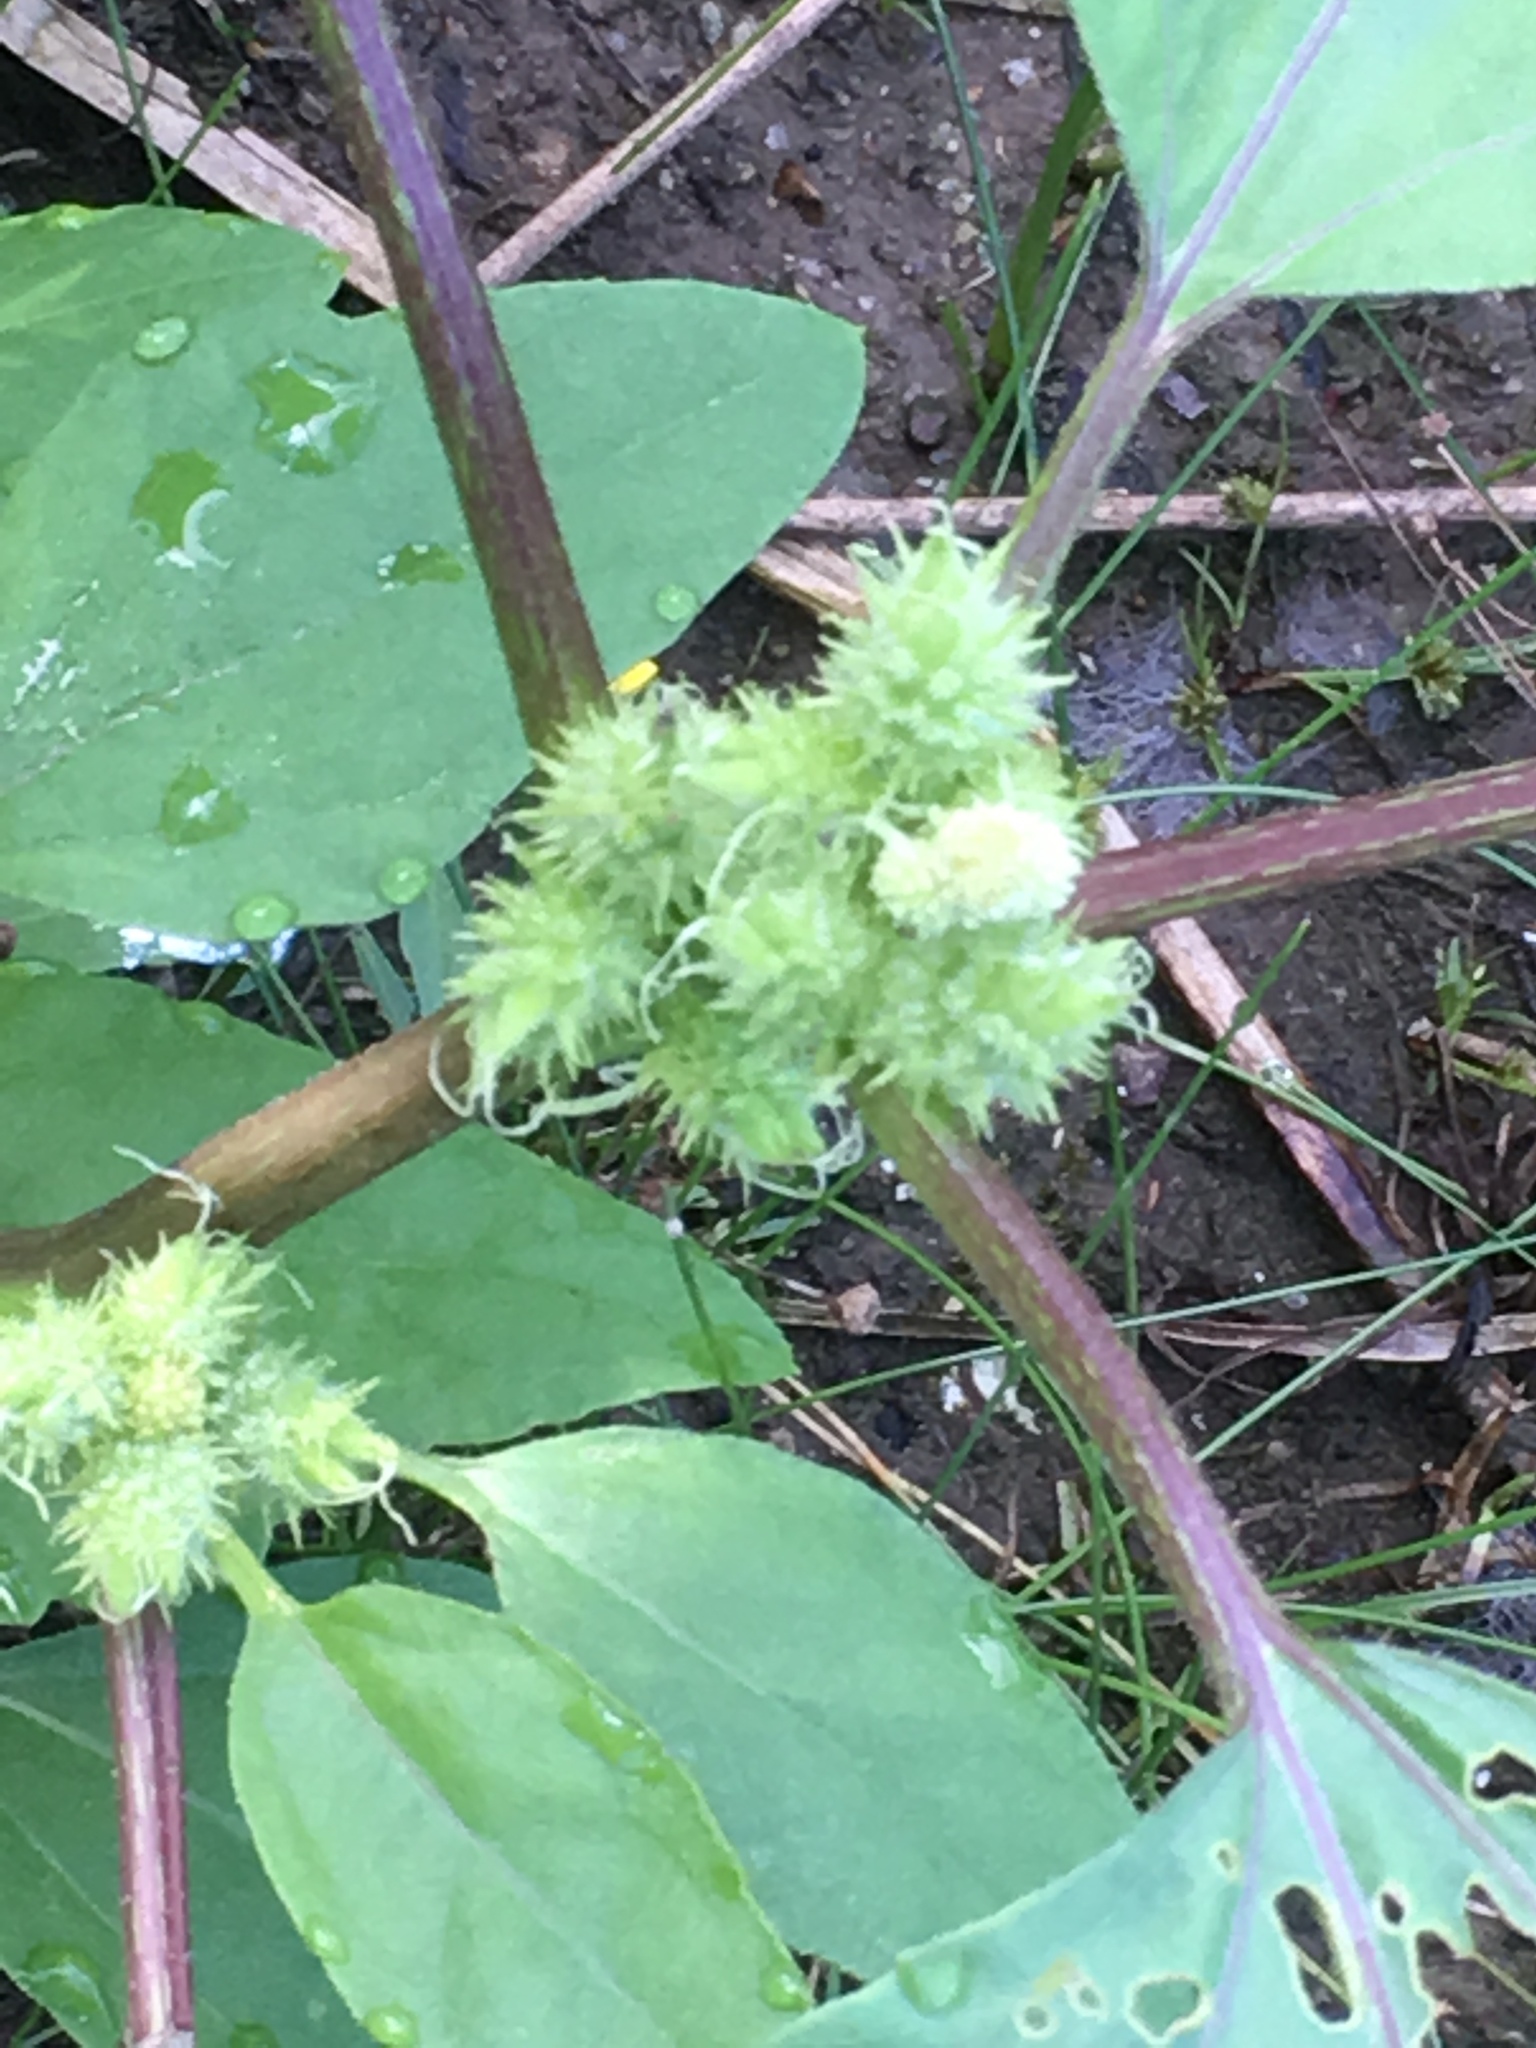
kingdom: Plantae
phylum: Tracheophyta
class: Magnoliopsida
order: Asterales
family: Asteraceae
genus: Xanthium
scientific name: Xanthium strumarium
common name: Rough cocklebur
